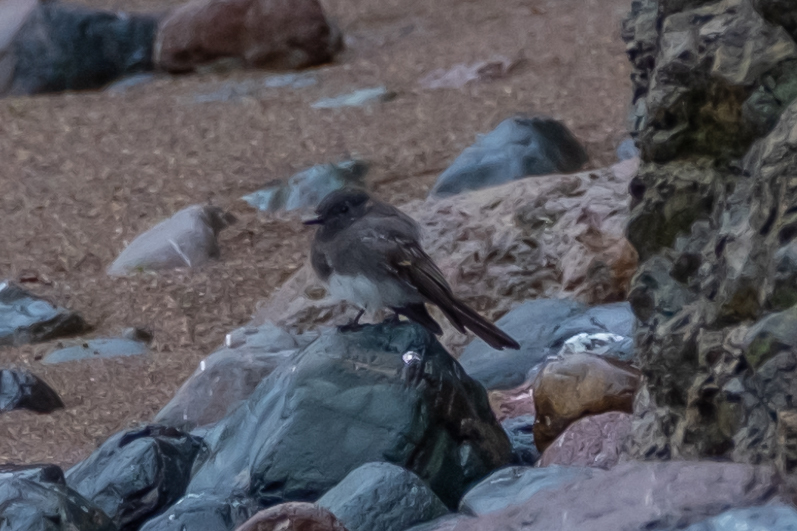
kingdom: Animalia
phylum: Chordata
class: Aves
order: Passeriformes
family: Tyrannidae
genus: Sayornis
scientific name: Sayornis nigricans
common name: Black phoebe
